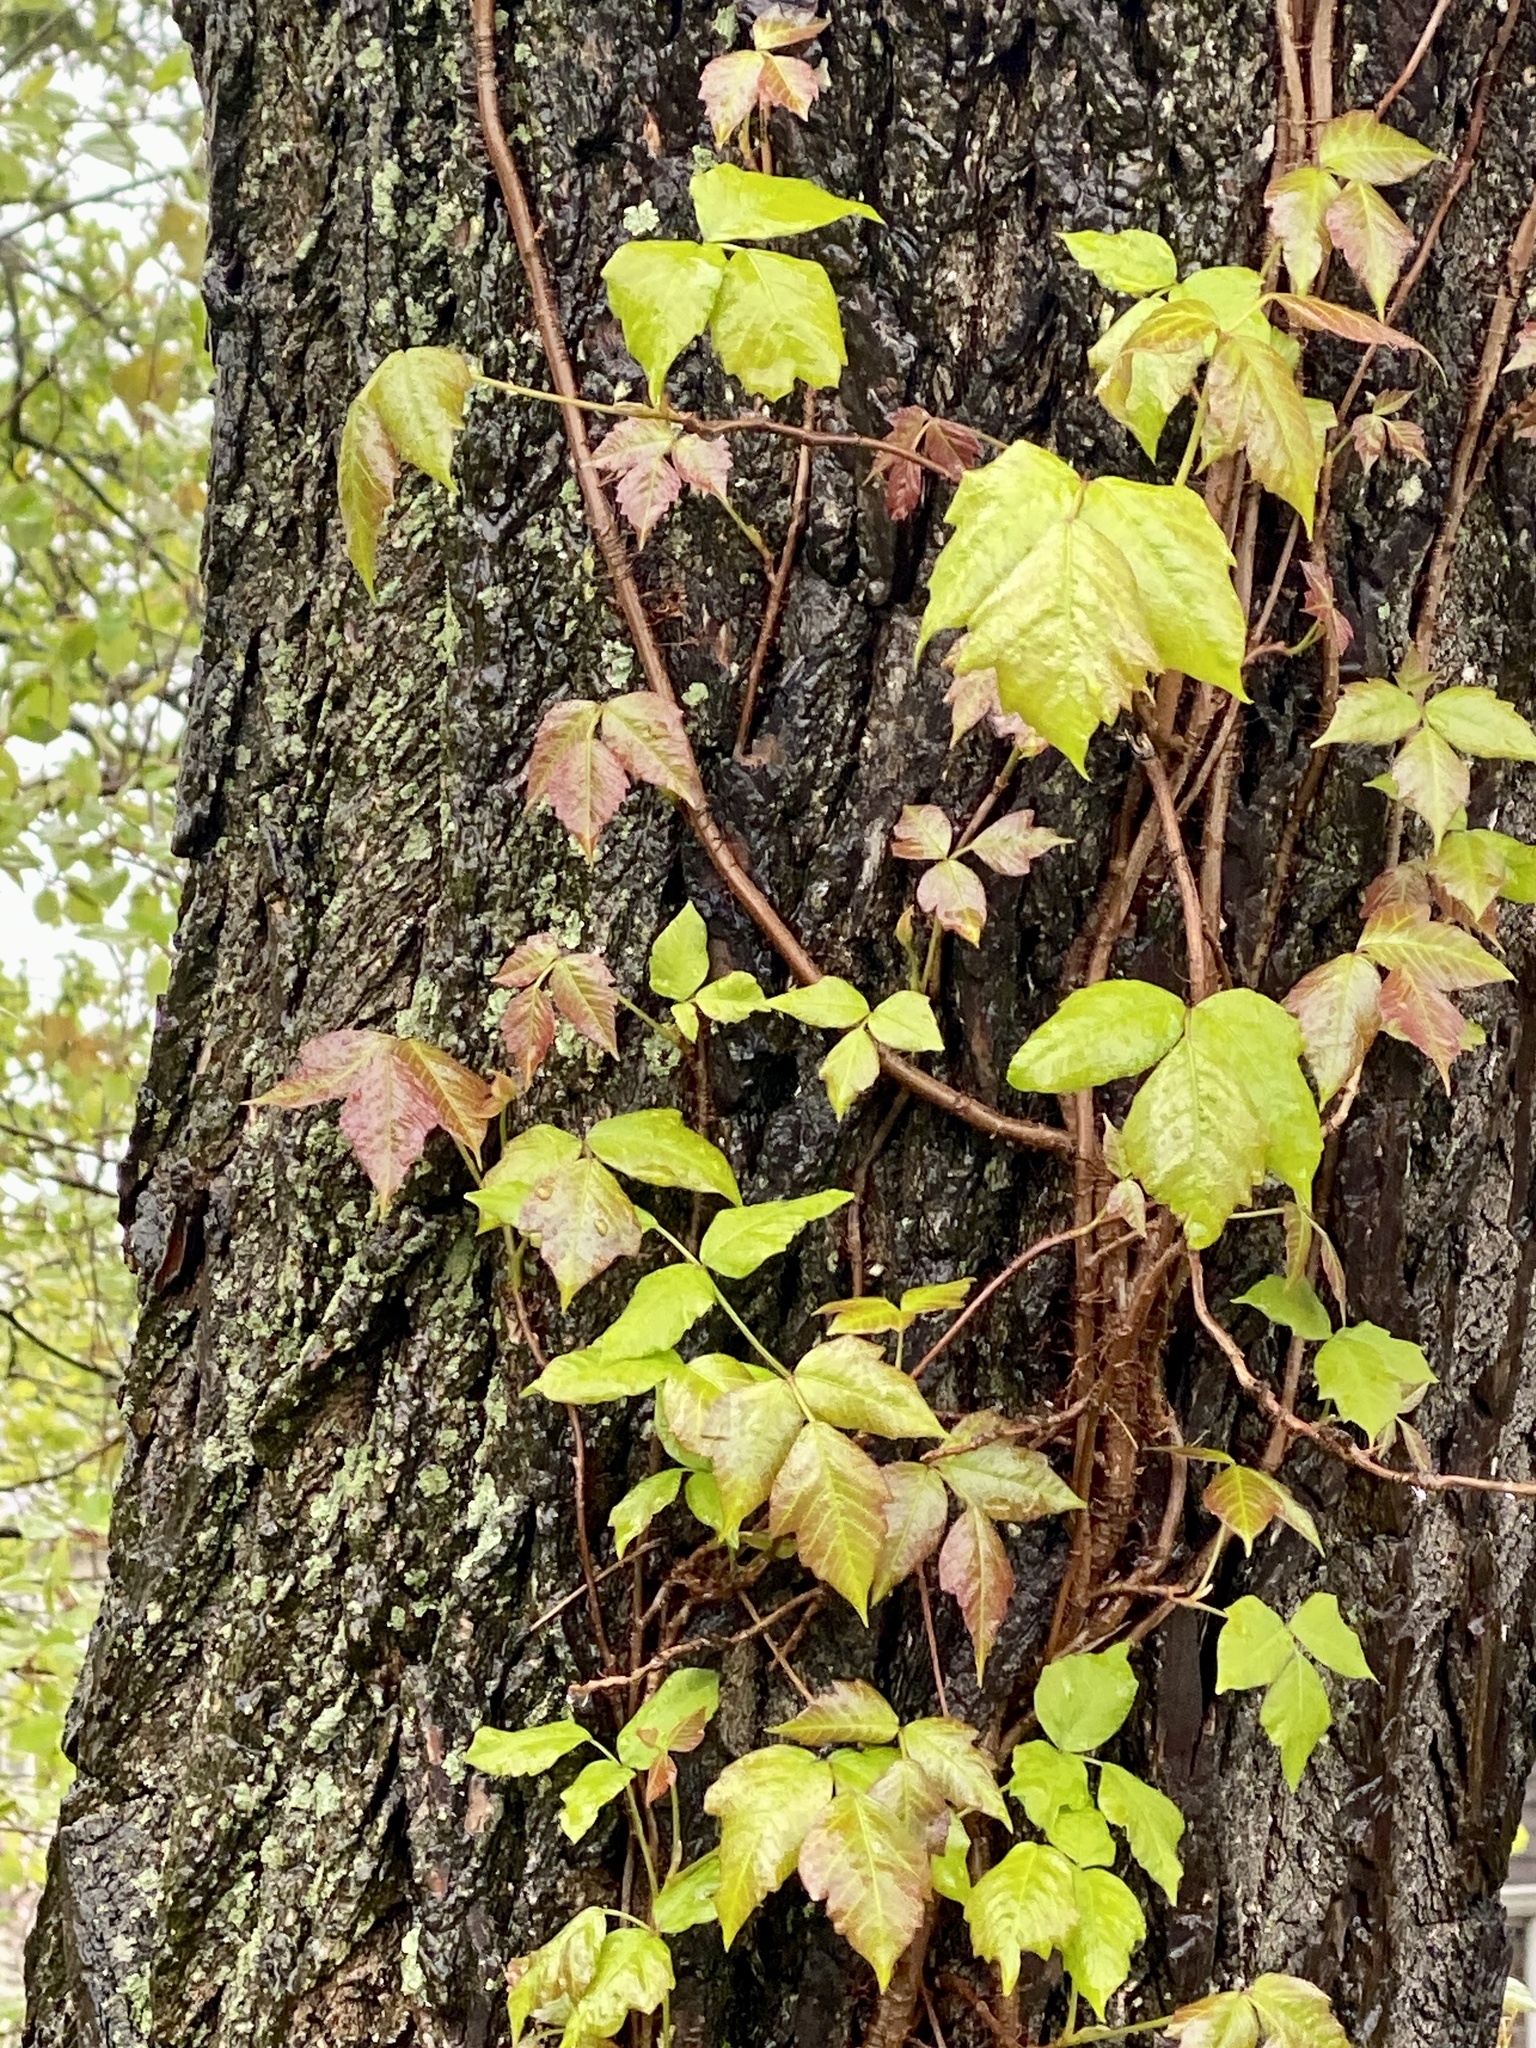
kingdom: Plantae
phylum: Tracheophyta
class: Magnoliopsida
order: Sapindales
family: Anacardiaceae
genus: Toxicodendron
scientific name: Toxicodendron radicans
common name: Poison ivy
